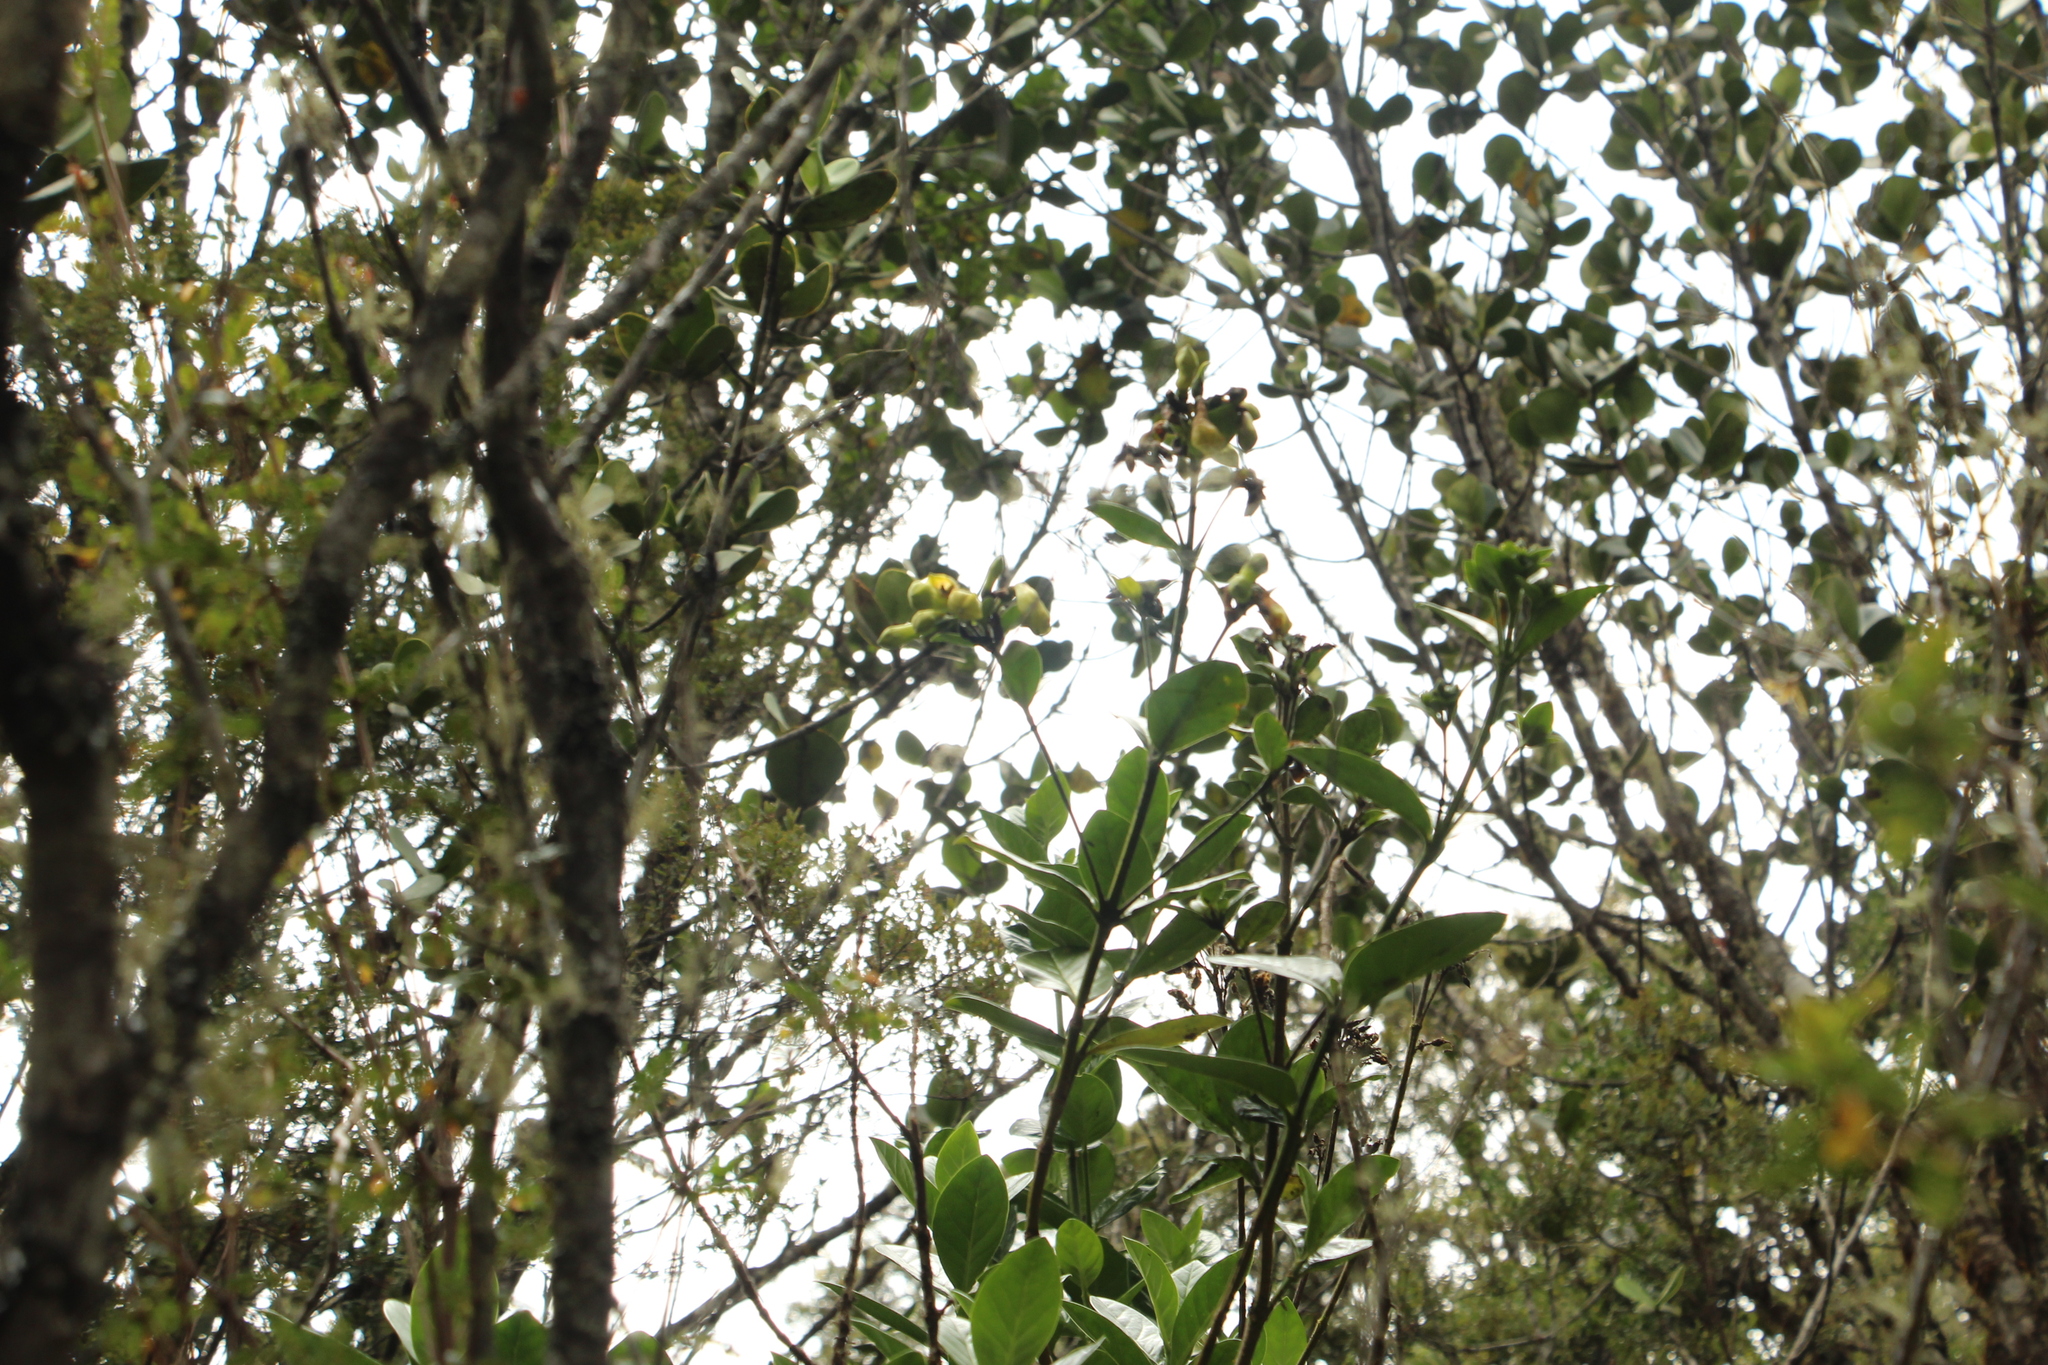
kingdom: Plantae
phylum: Tracheophyta
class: Magnoliopsida
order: Gentianales
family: Gentianaceae
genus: Macrocarpaea
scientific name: Macrocarpaea glabra
